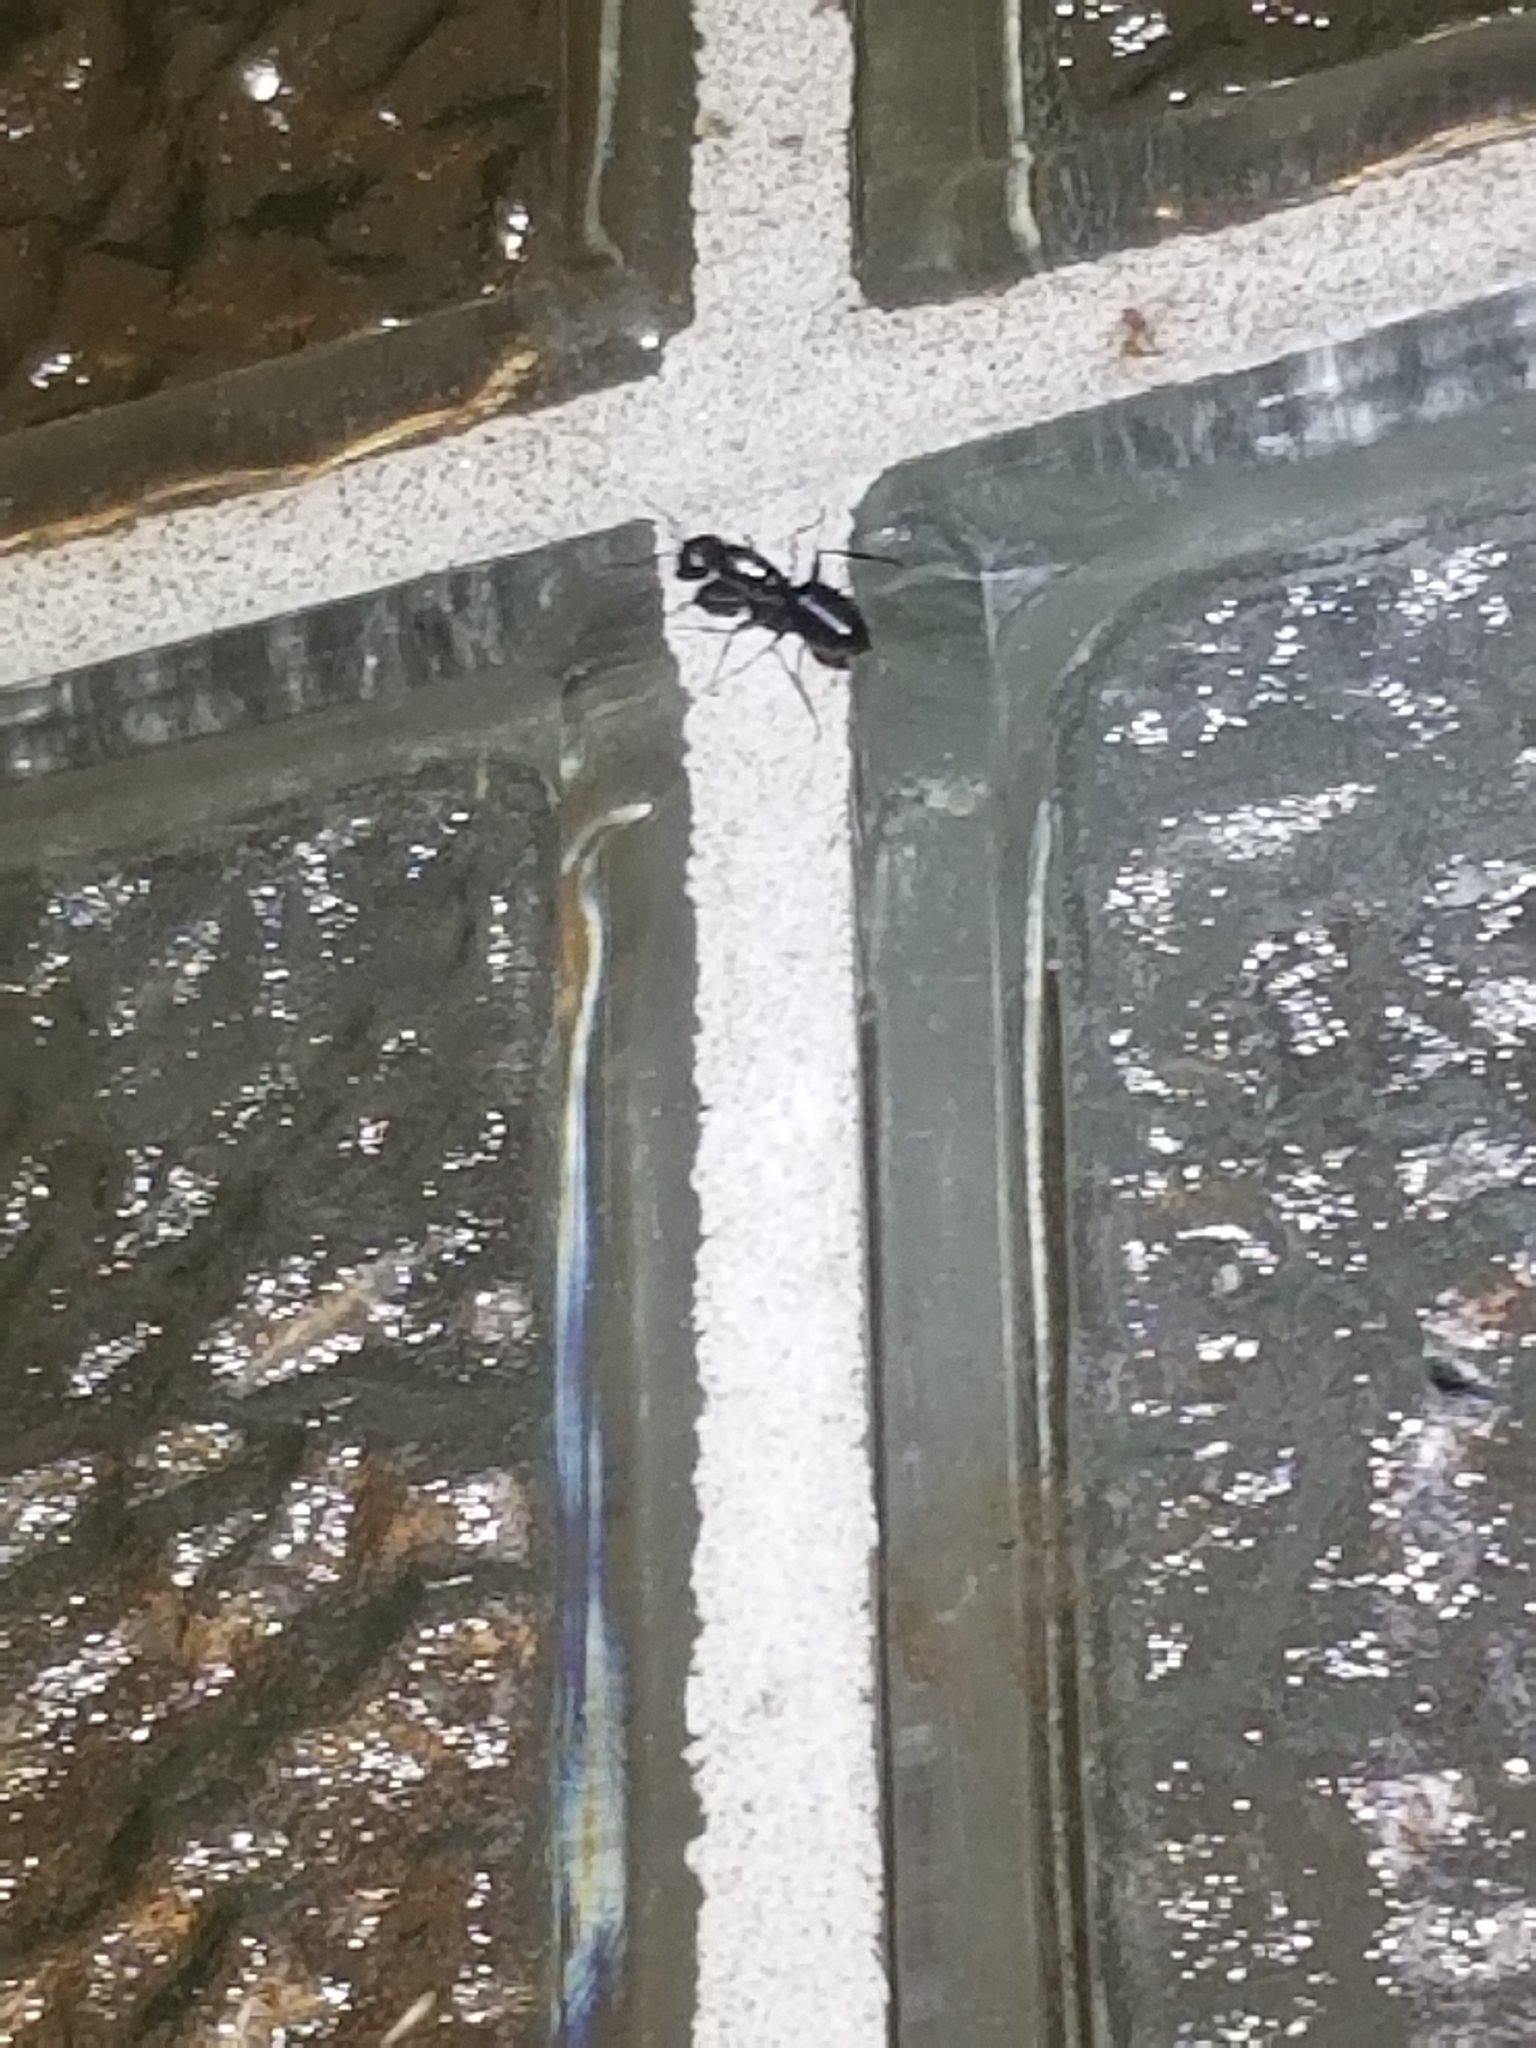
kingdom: Animalia
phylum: Arthropoda
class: Insecta
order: Hymenoptera
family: Formicidae
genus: Camponotus
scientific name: Camponotus pennsylvanicus
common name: Black carpenter ant
